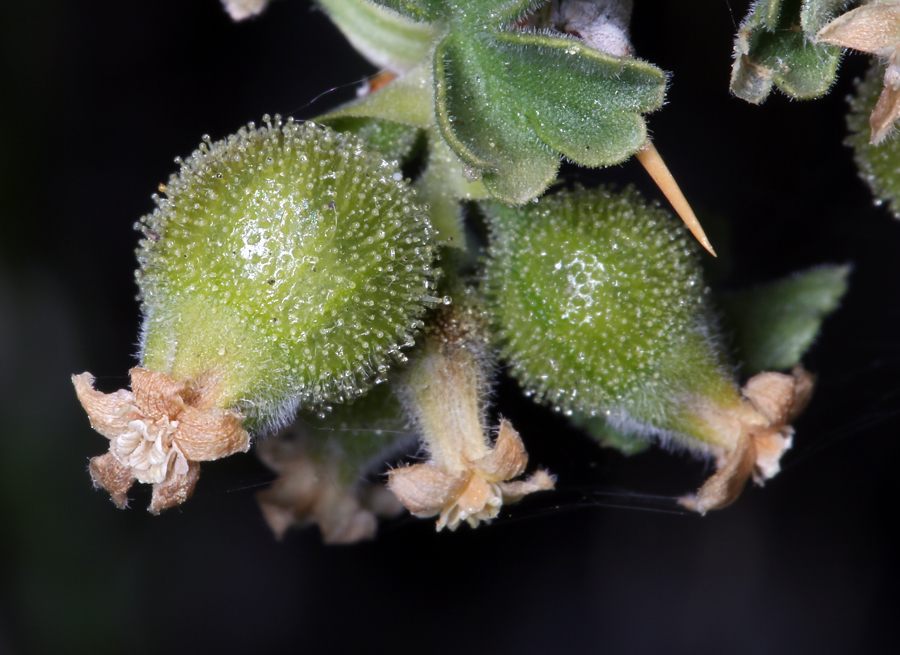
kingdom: Plantae
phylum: Tracheophyta
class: Magnoliopsida
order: Saxifragales
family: Grossulariaceae
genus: Ribes
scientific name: Ribes velutinum
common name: Desert gooseberry
